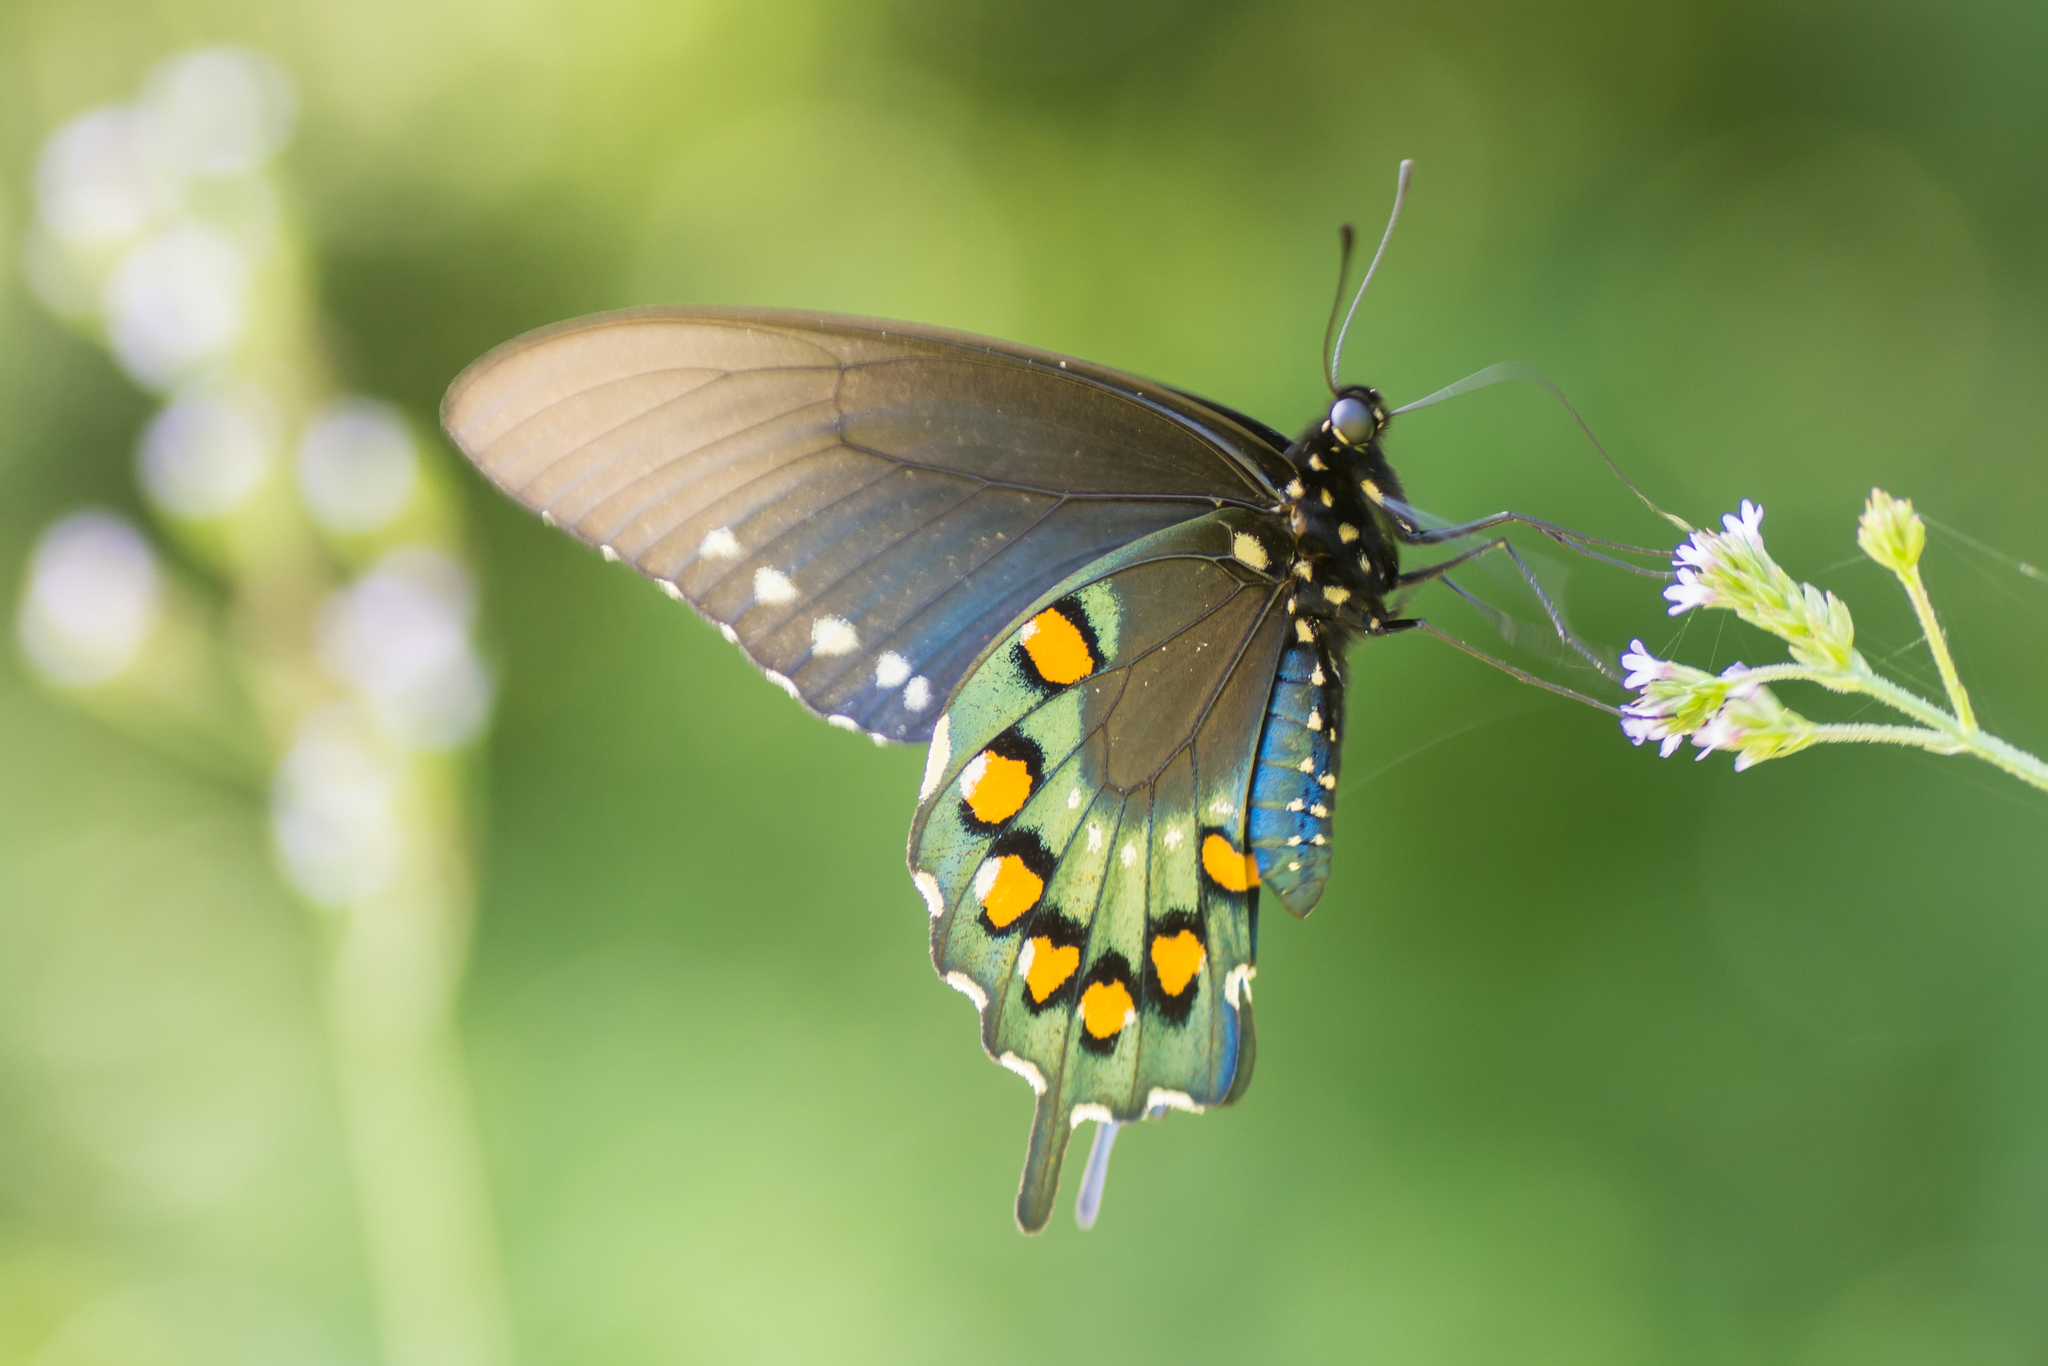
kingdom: Animalia
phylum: Arthropoda
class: Insecta
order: Lepidoptera
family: Papilionidae
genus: Battus
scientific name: Battus philenor
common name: Pipevine swallowtail
